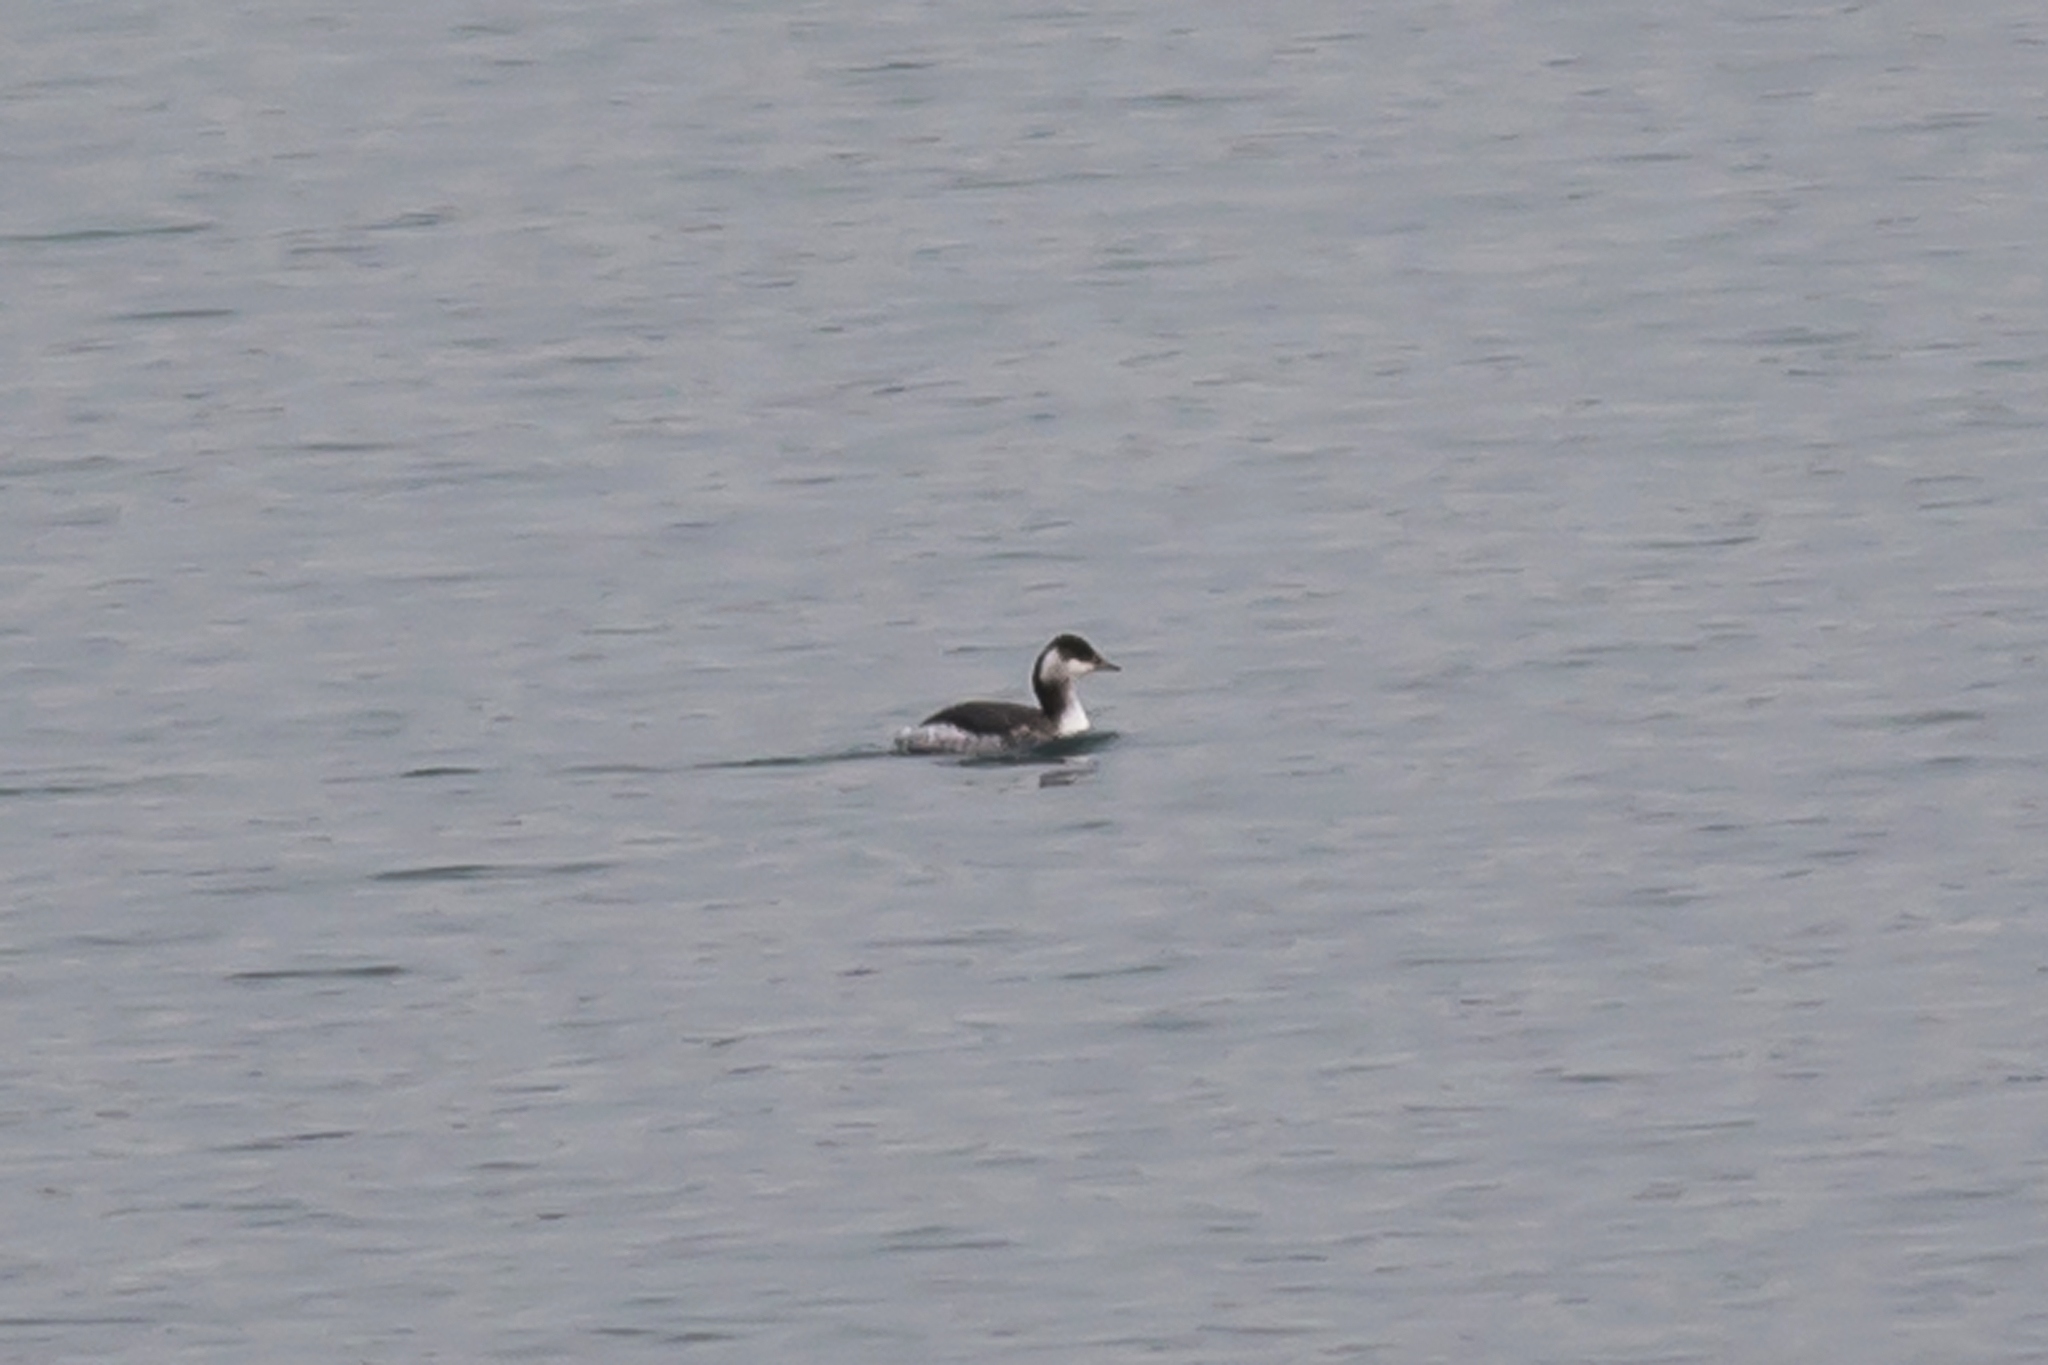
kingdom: Animalia
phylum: Chordata
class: Aves
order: Podicipediformes
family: Podicipedidae
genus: Podiceps
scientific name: Podiceps auritus
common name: Horned grebe
